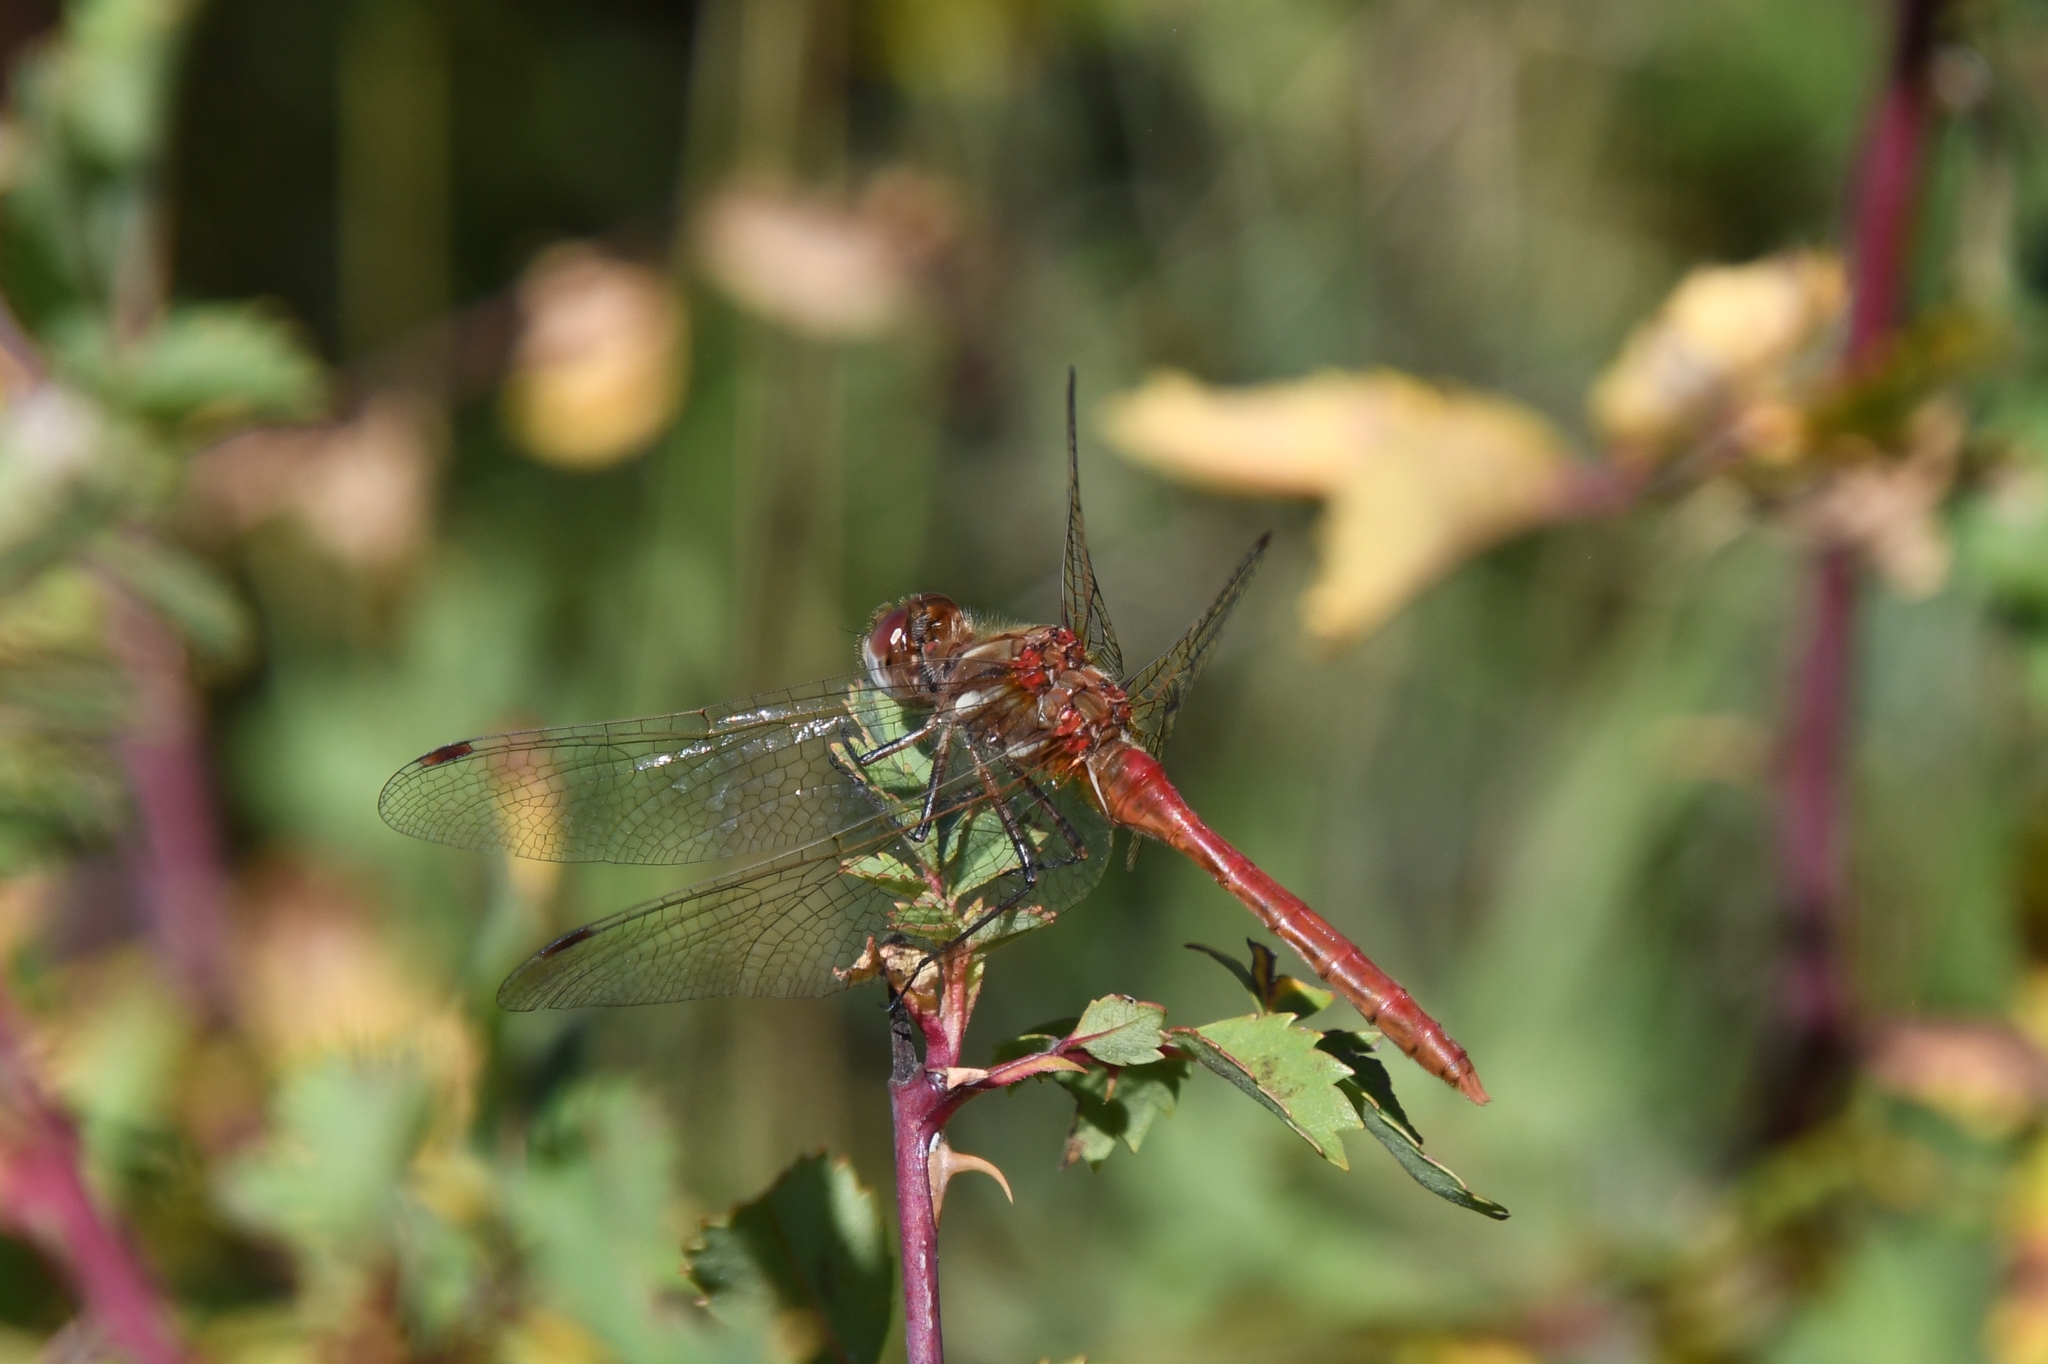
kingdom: Animalia
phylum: Arthropoda
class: Insecta
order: Odonata
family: Libellulidae
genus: Sympetrum
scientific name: Sympetrum pallipes
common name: Striped meadowhawk
